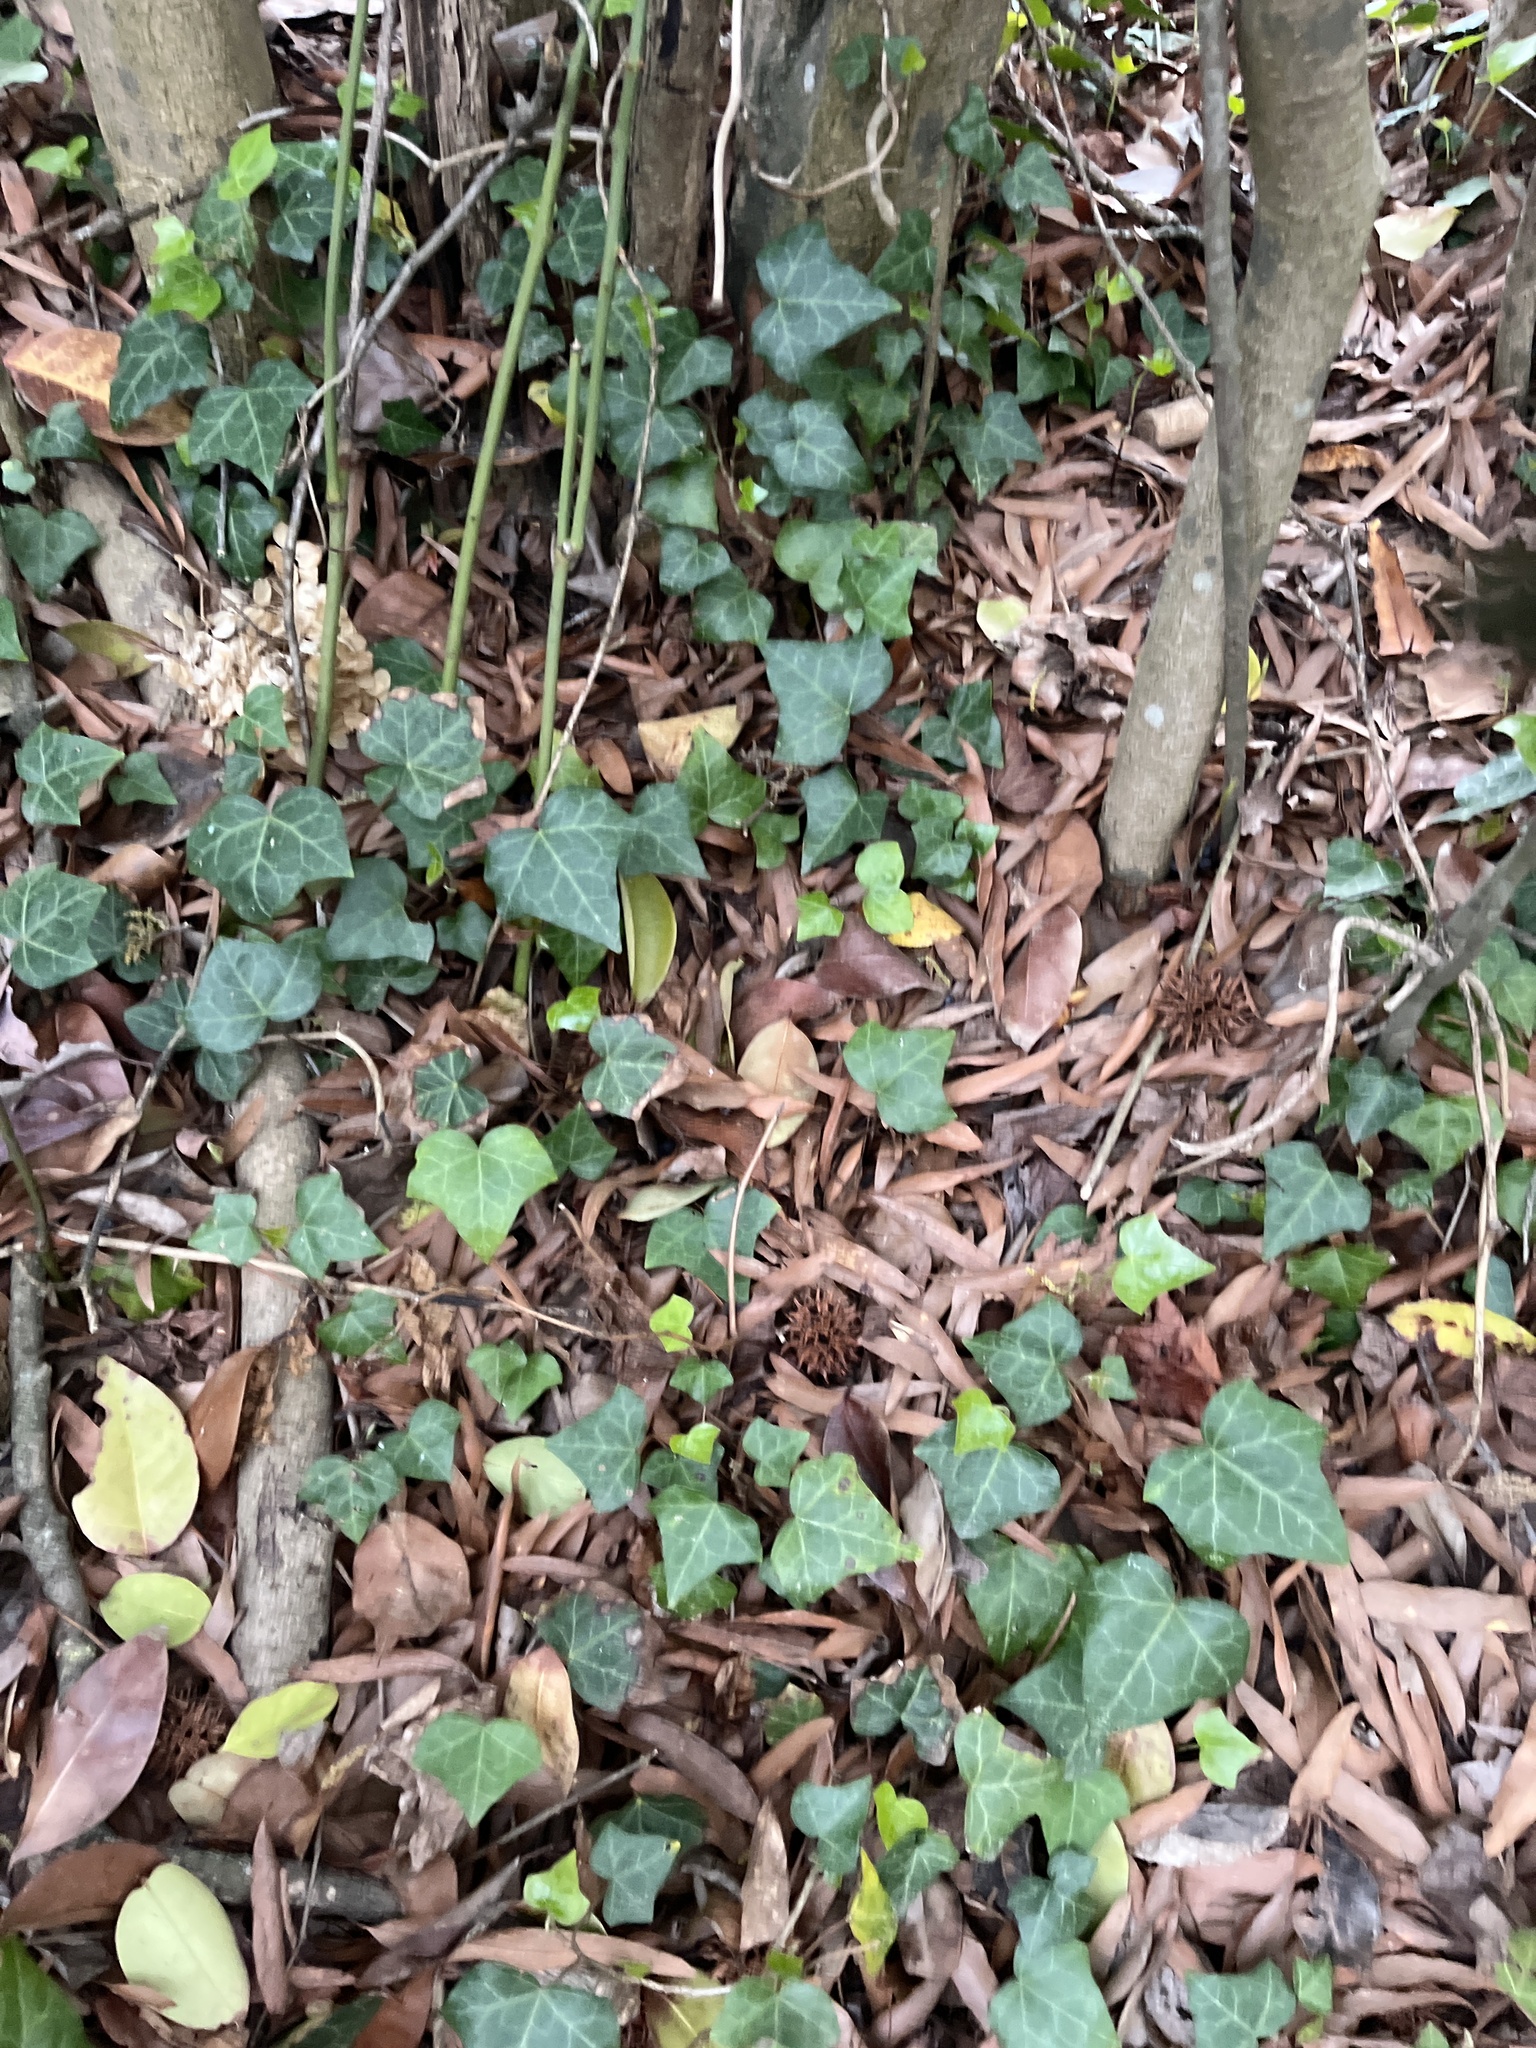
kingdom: Plantae
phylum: Tracheophyta
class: Magnoliopsida
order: Apiales
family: Araliaceae
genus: Hedera
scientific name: Hedera helix
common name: Ivy
